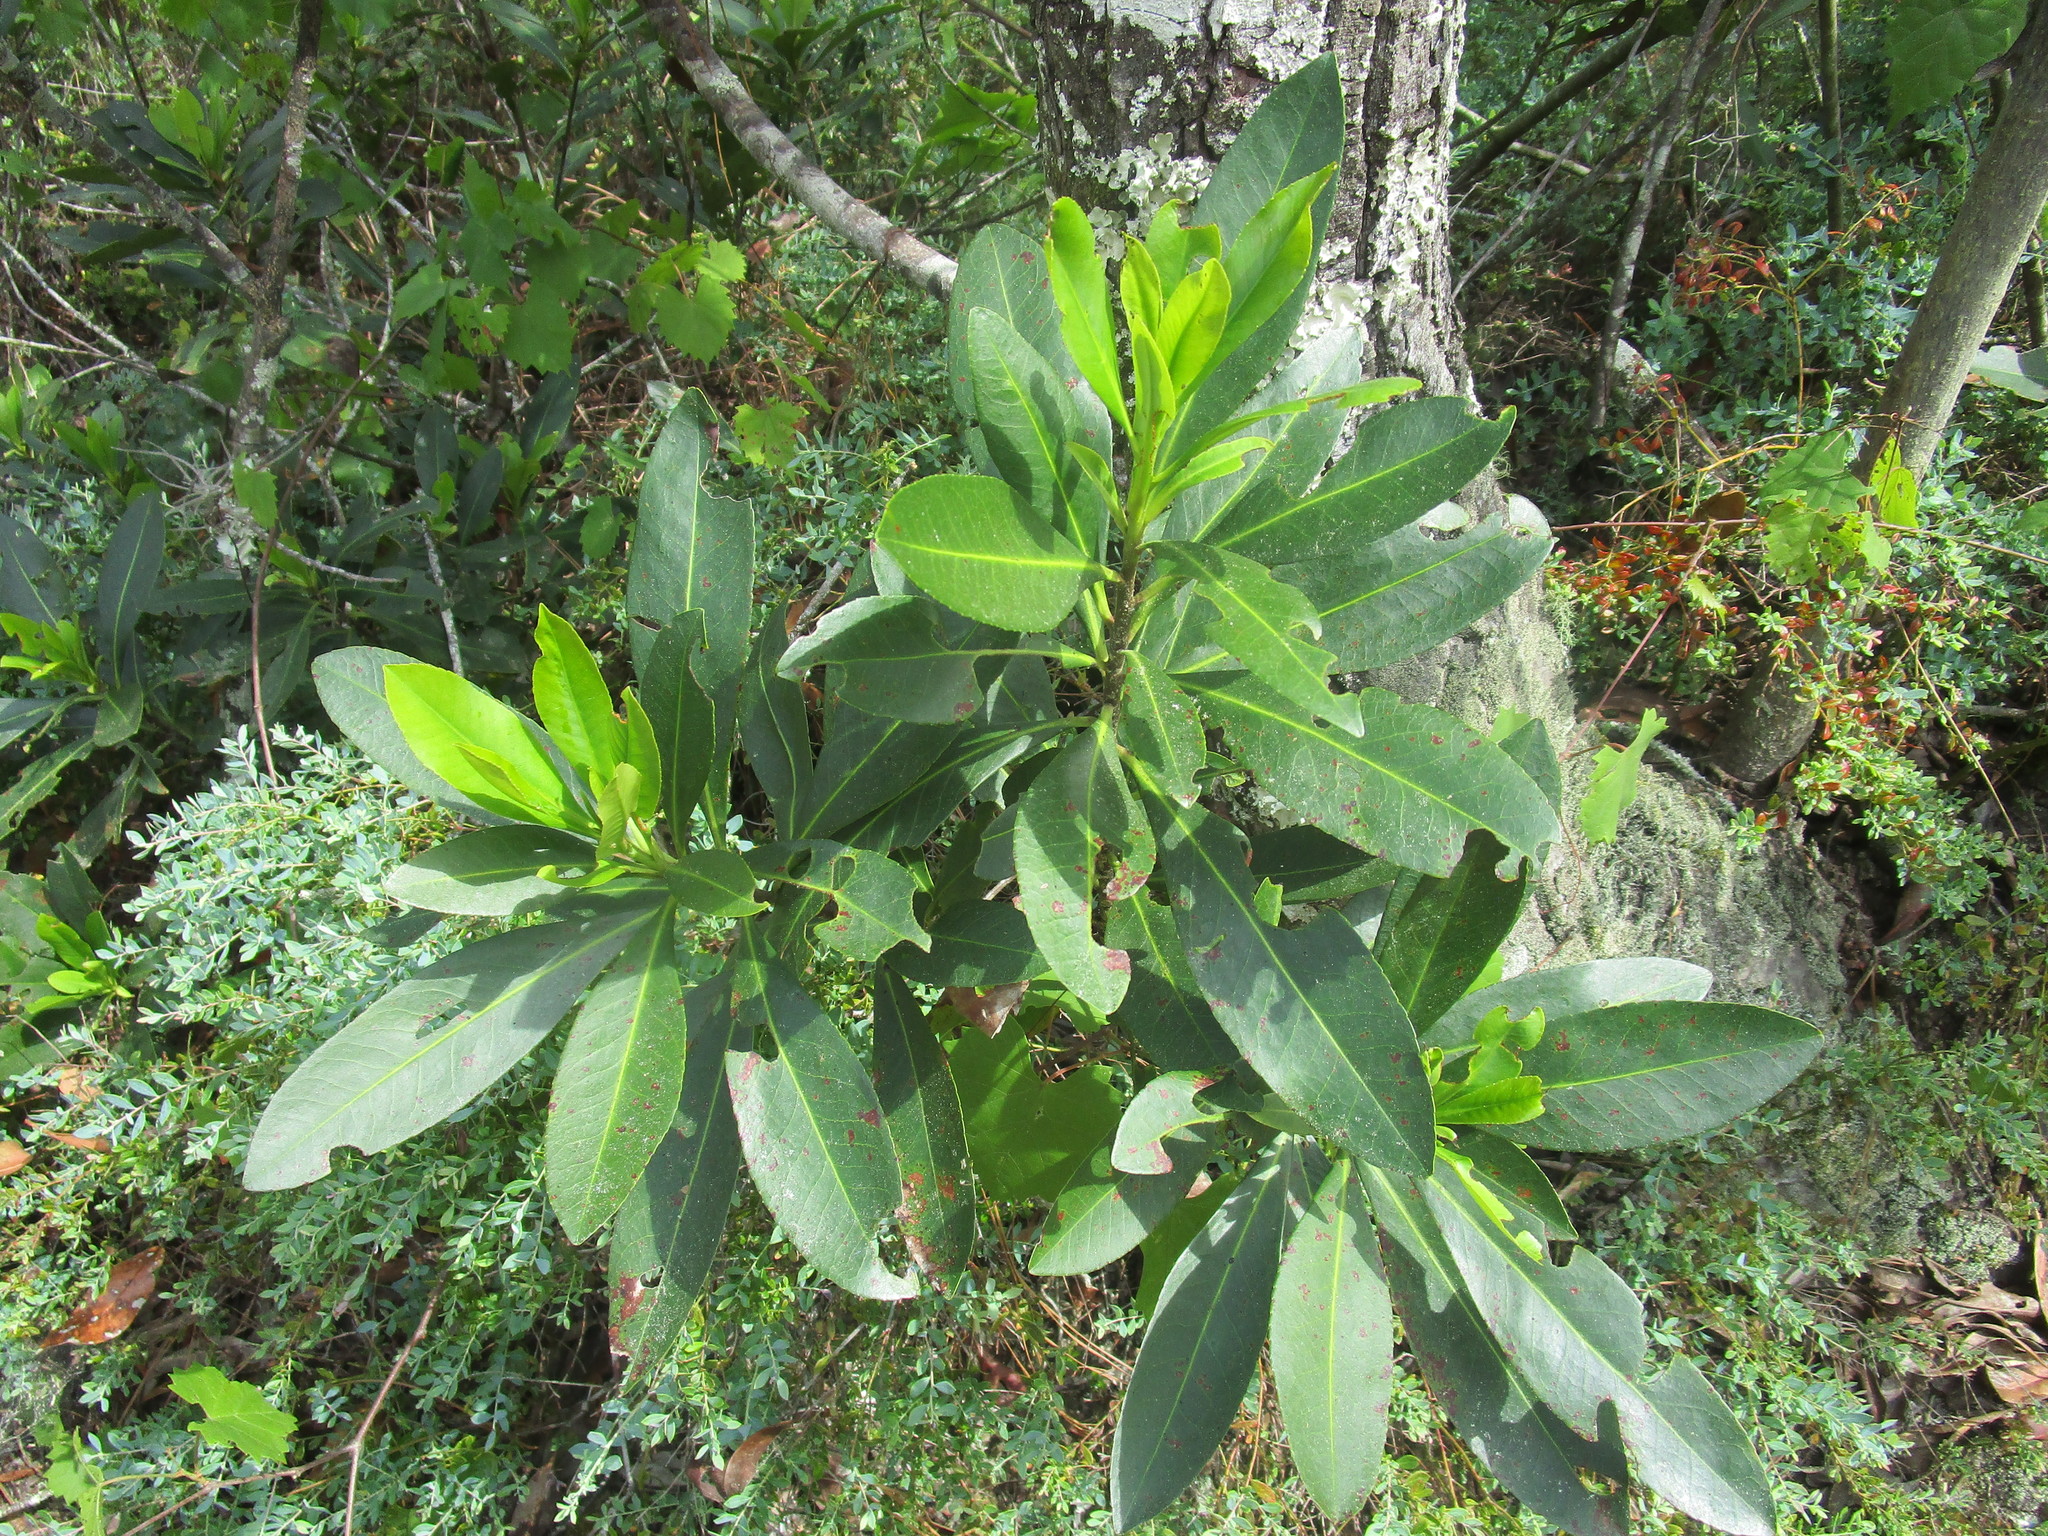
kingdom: Plantae
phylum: Tracheophyta
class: Magnoliopsida
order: Ericales
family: Theaceae
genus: Gordonia
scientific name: Gordonia lasianthus
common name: Loblolly bay
